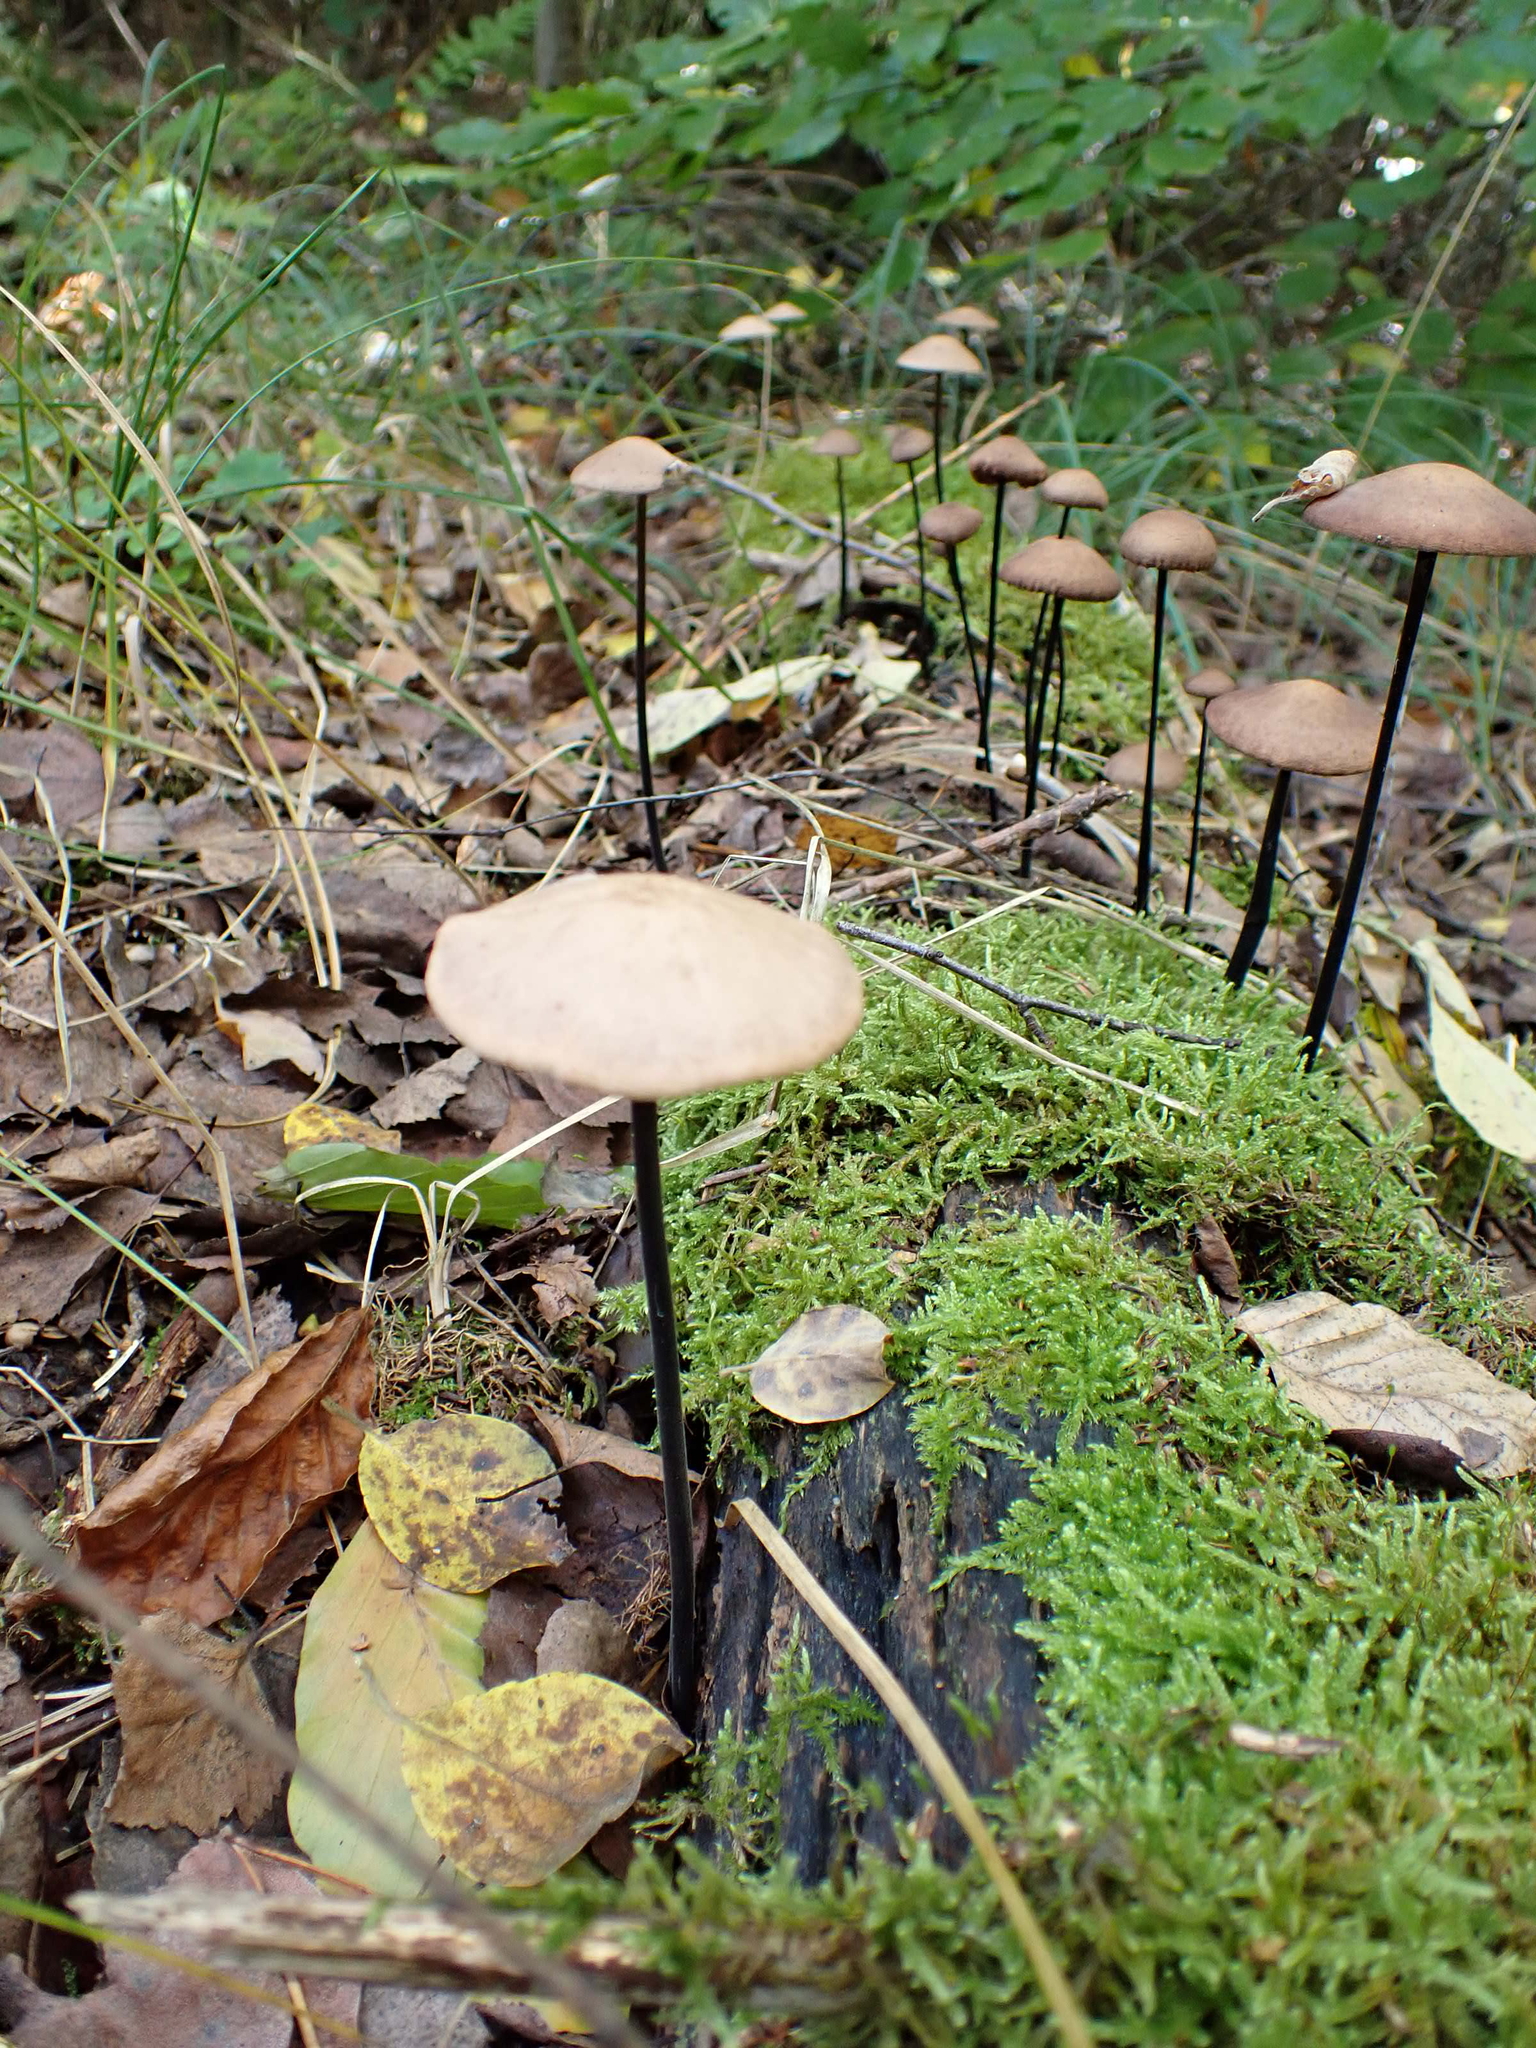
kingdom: Fungi
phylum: Basidiomycota
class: Agaricomycetes
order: Agaricales
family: Omphalotaceae
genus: Mycetinis
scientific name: Mycetinis alliaceus
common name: Garlic parachute
